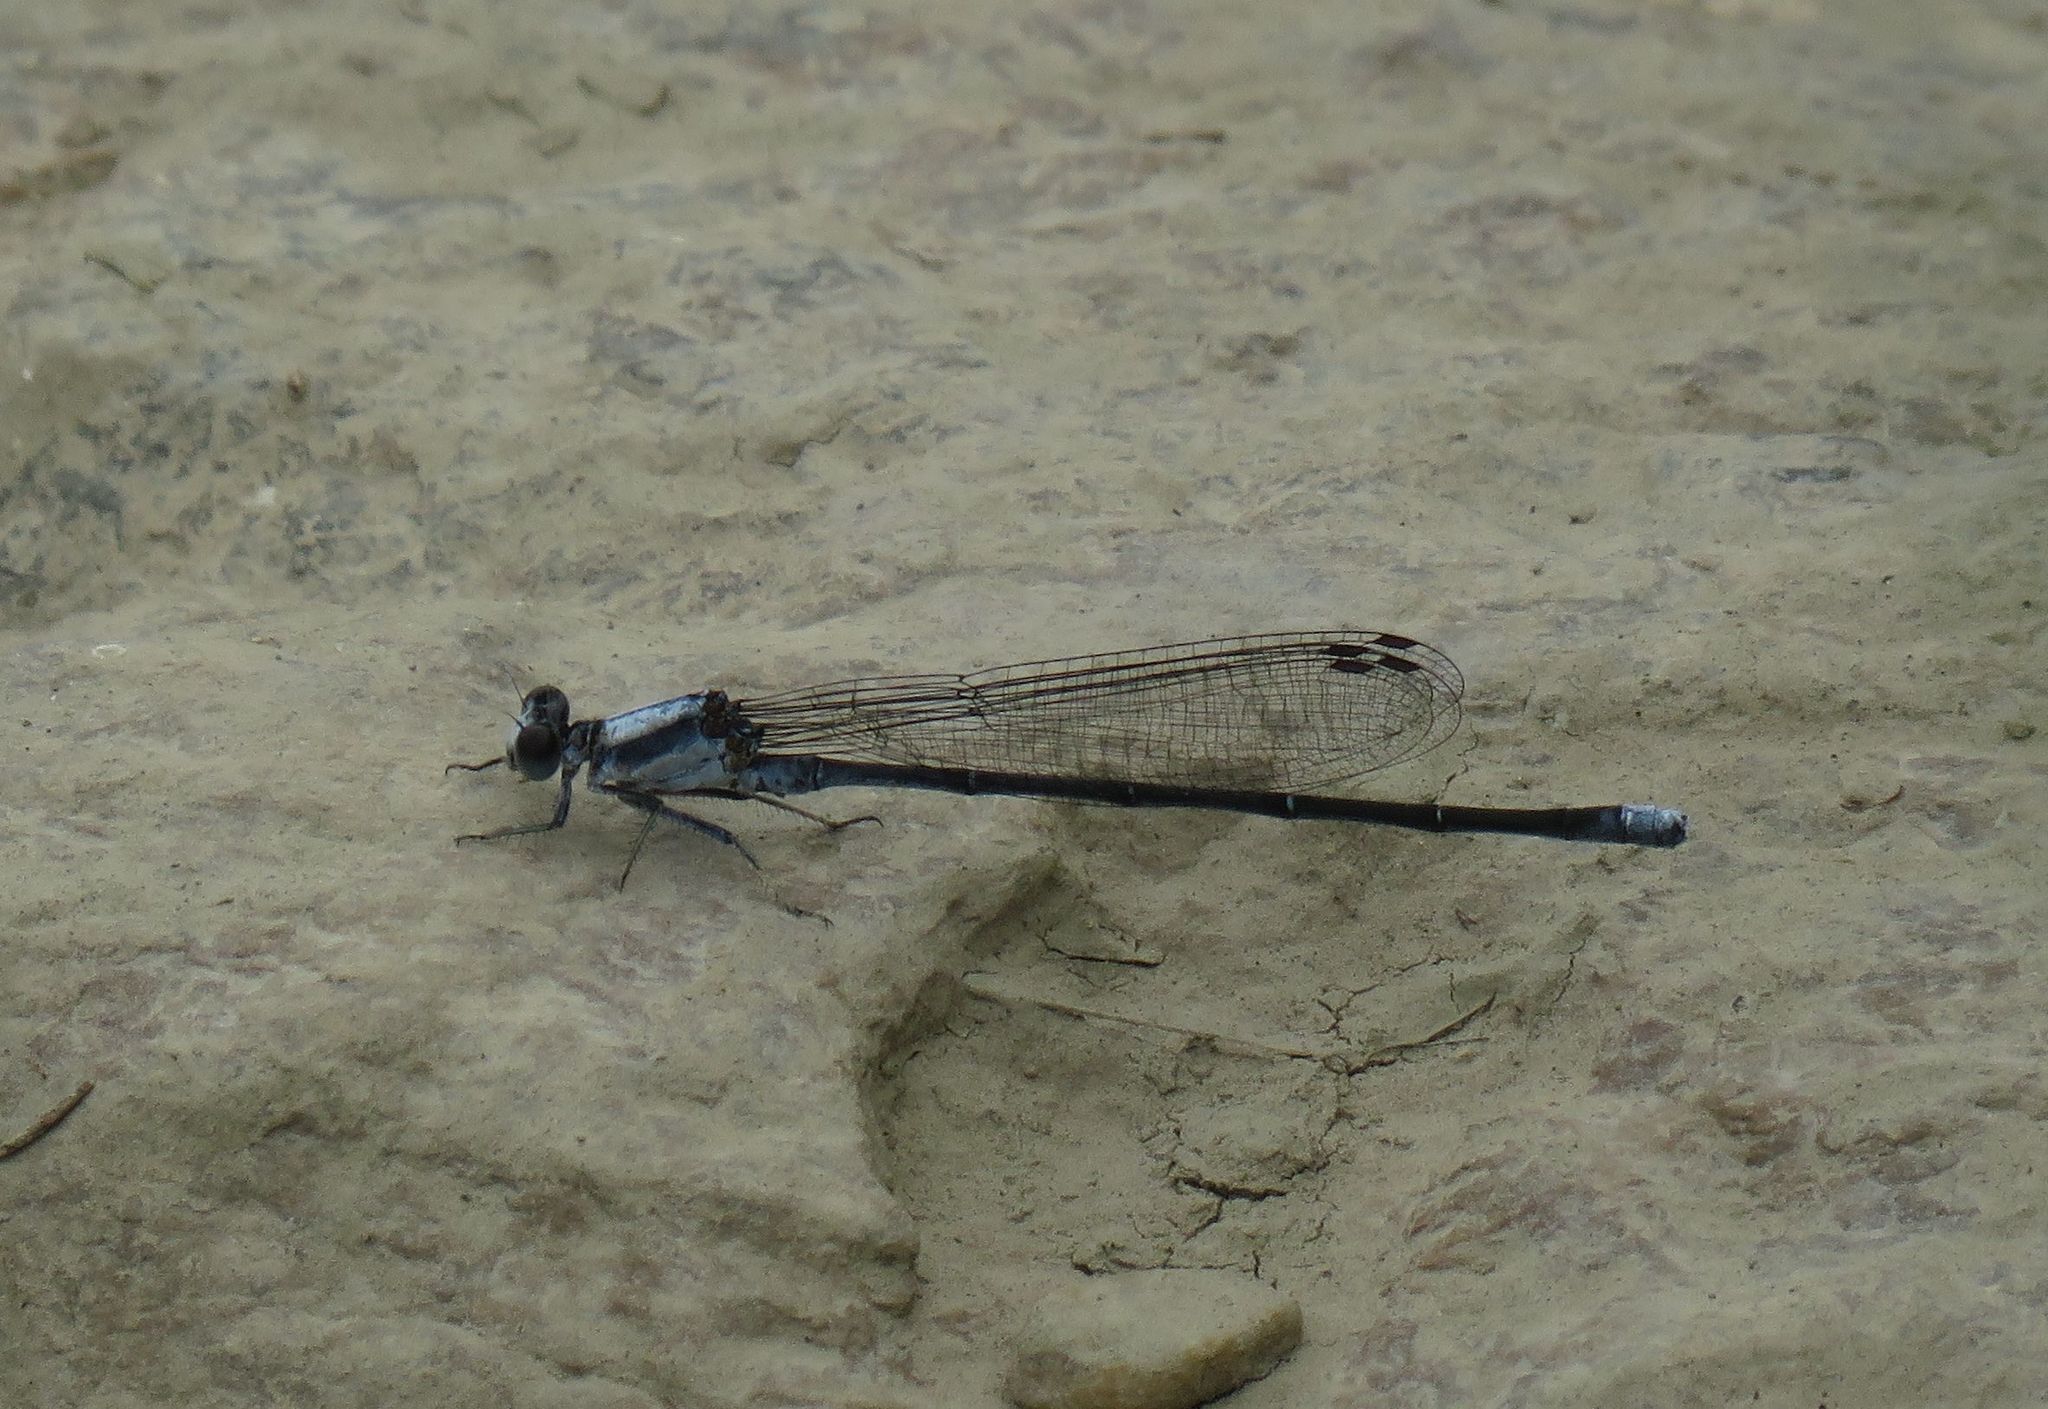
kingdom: Animalia
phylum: Arthropoda
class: Insecta
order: Odonata
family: Coenagrionidae
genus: Argia
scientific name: Argia moesta
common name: Powdered dancer
